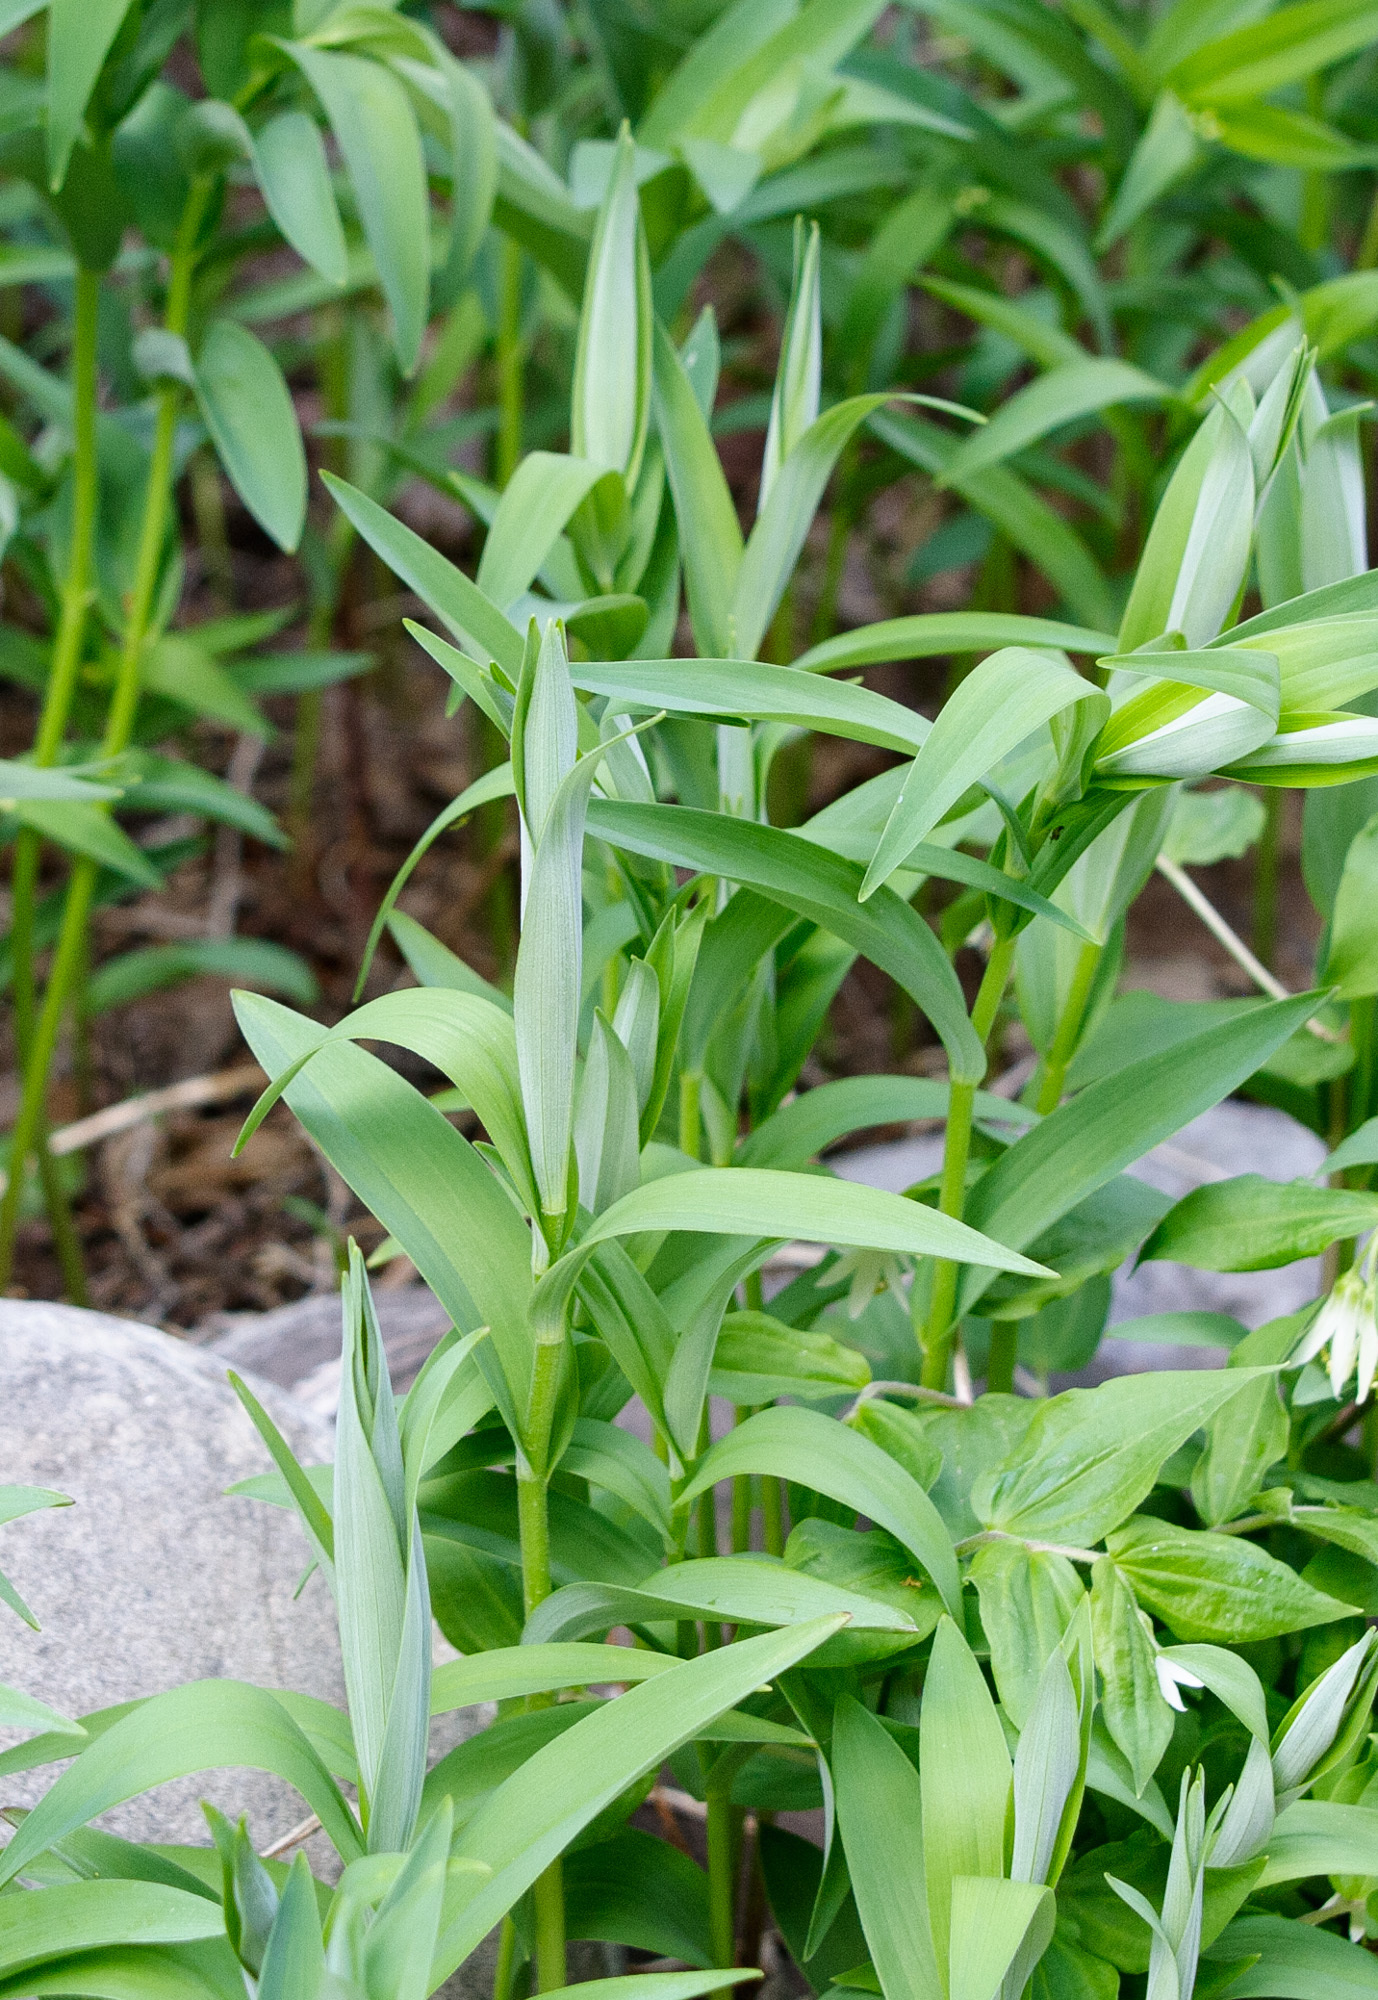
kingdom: Plantae
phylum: Tracheophyta
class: Liliopsida
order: Asparagales
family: Asparagaceae
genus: Maianthemum
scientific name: Maianthemum stellatum
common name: Little false solomon's seal
